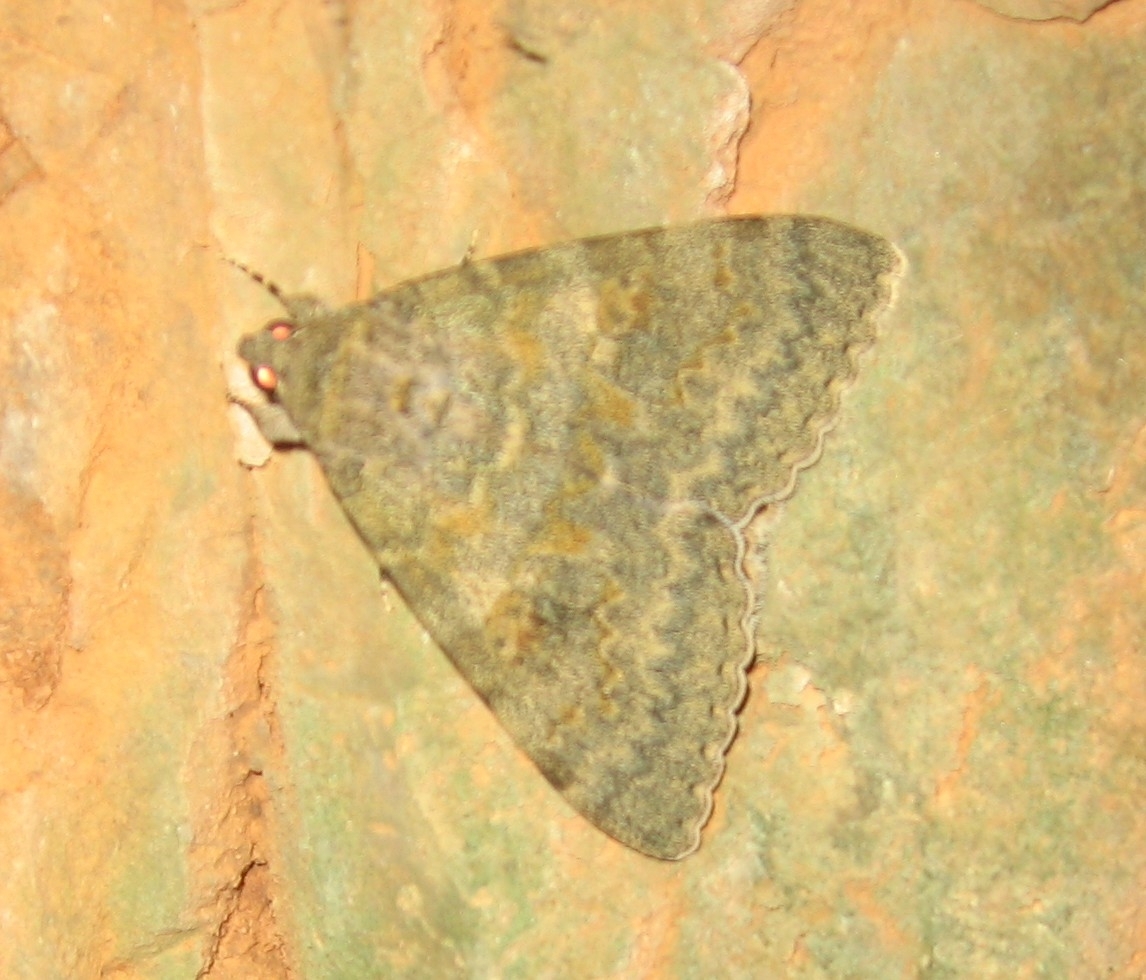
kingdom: Animalia
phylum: Arthropoda
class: Insecta
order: Lepidoptera
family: Erebidae
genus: Catocala
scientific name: Catocala elocata
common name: French red underwing
